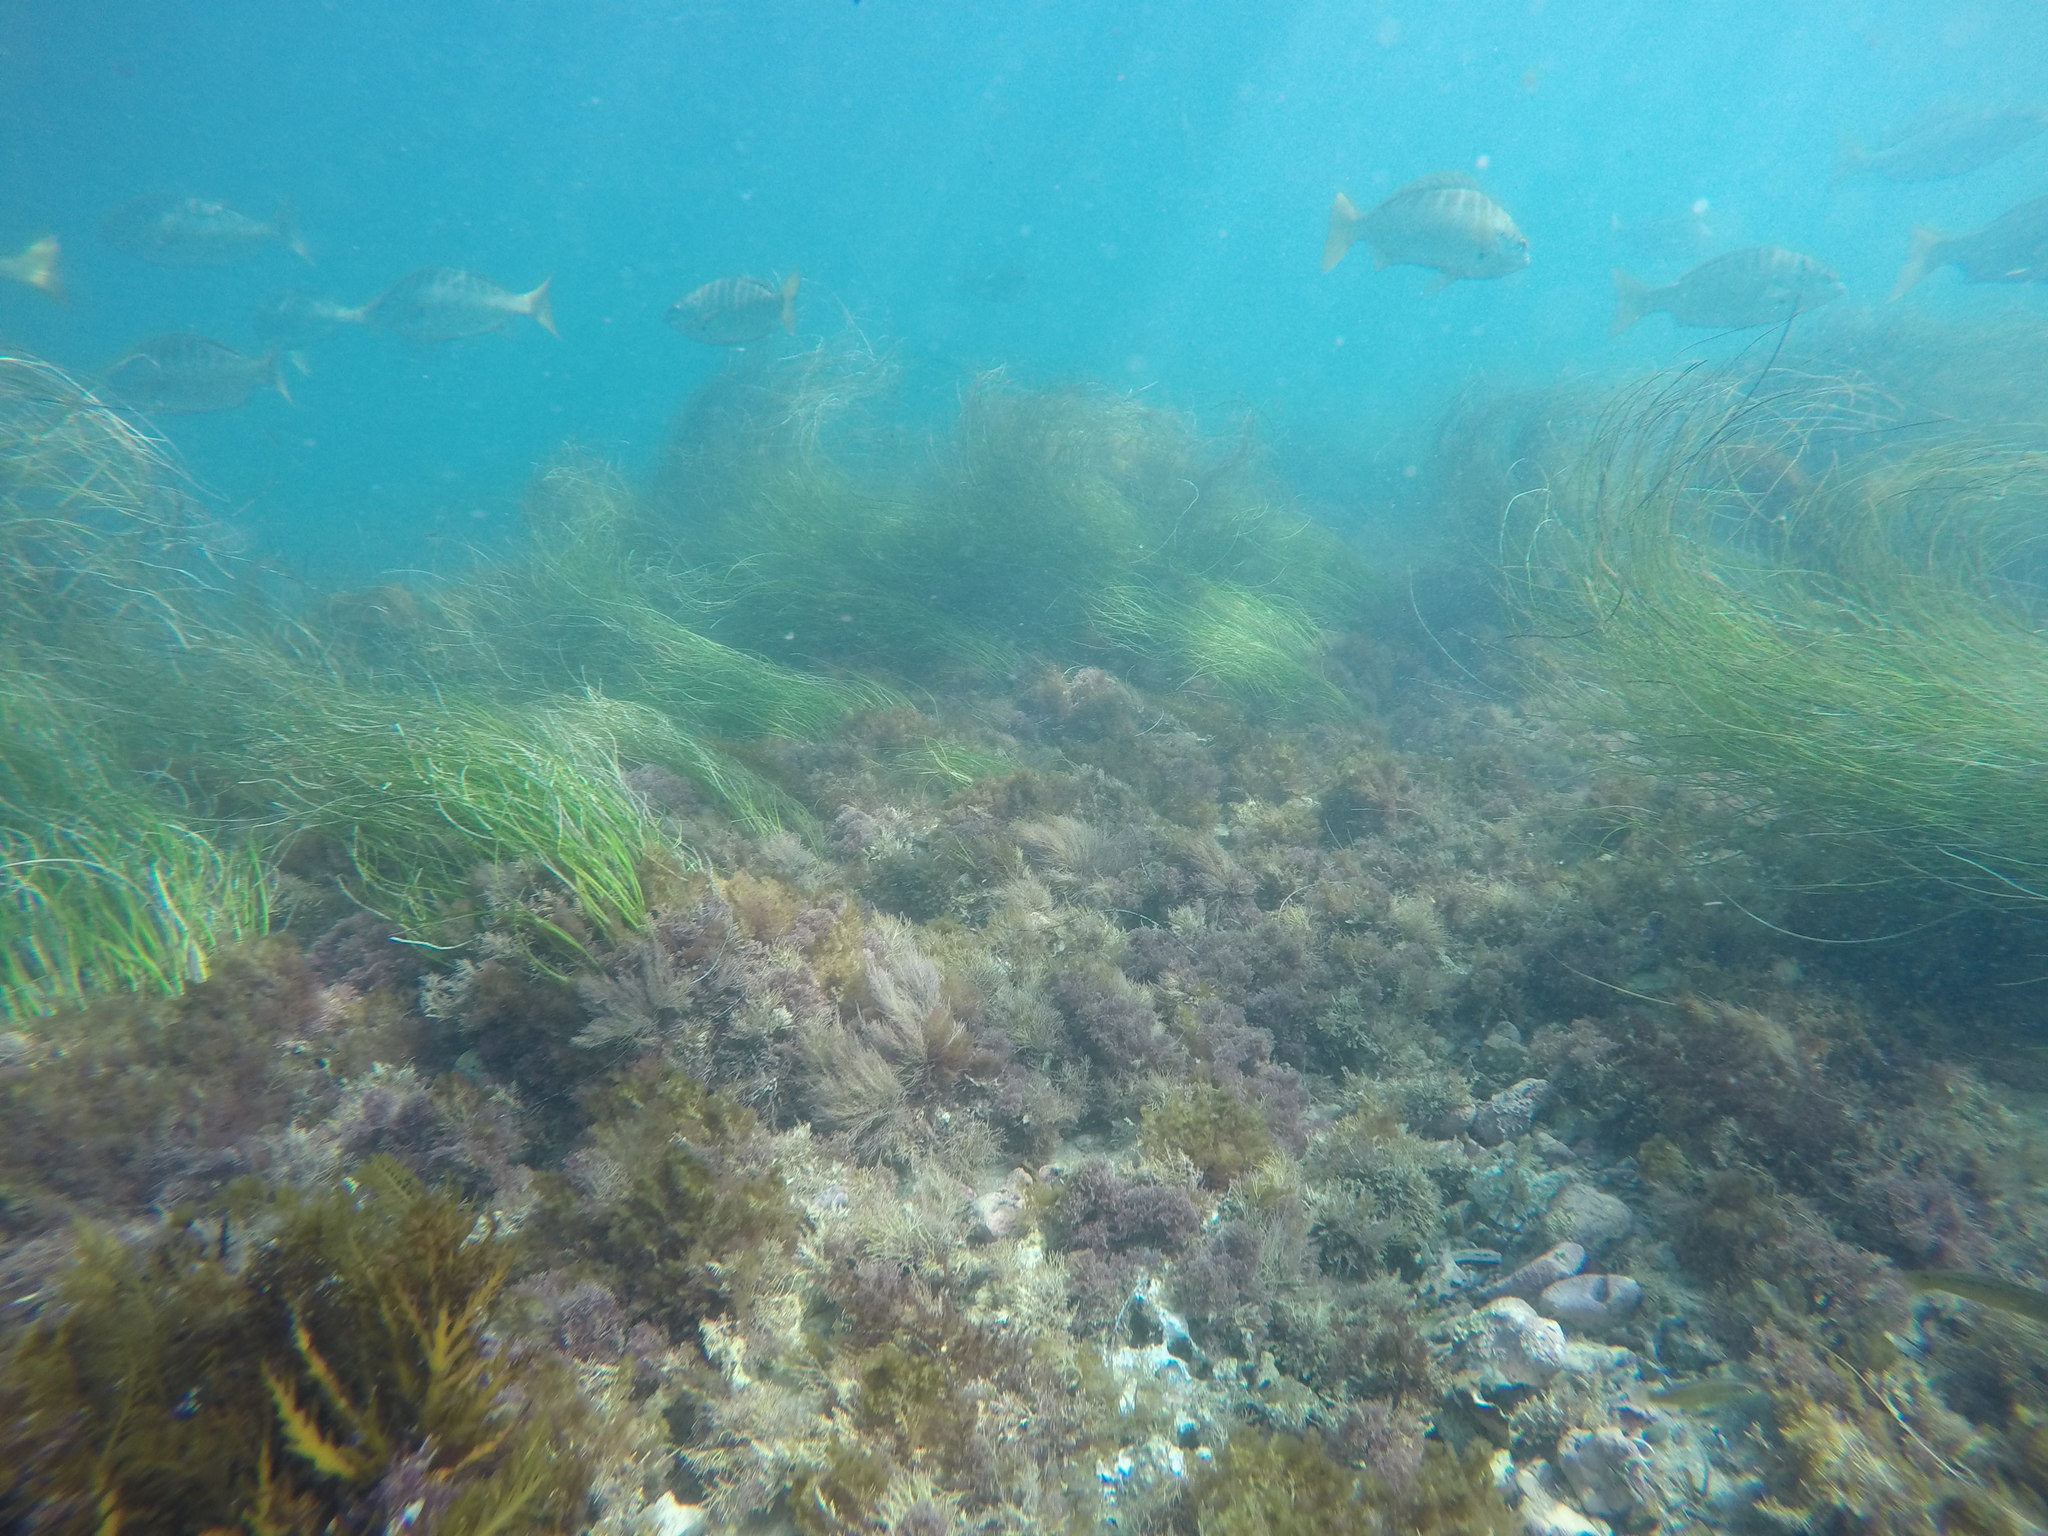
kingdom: Animalia
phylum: Chordata
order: Perciformes
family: Kyphosidae
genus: Kyphosus
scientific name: Kyphosus azureus
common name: Perch
